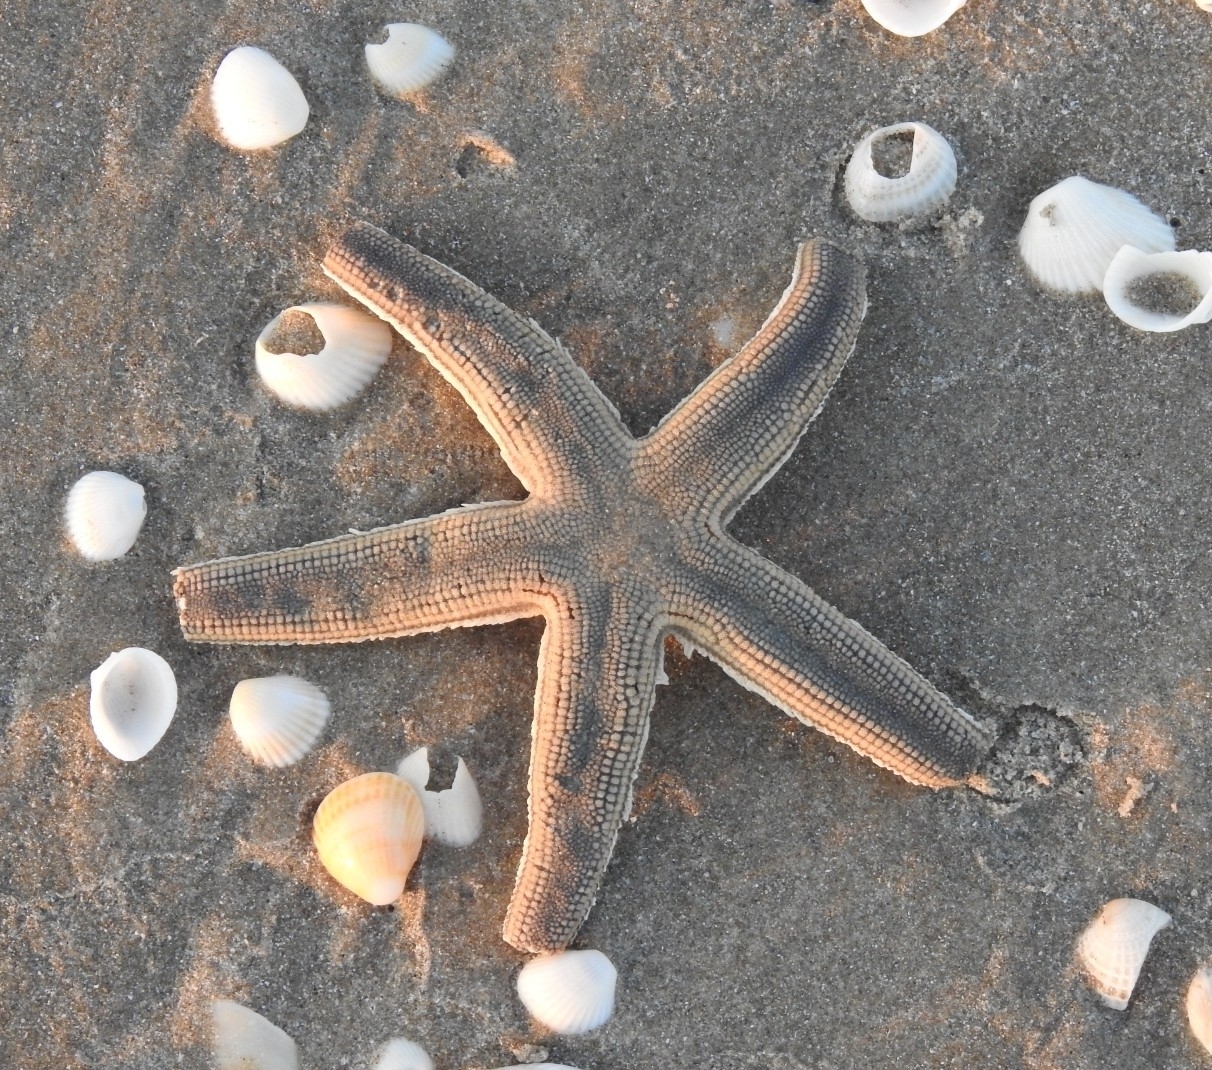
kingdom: Animalia
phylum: Echinodermata
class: Asteroidea
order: Paxillosida
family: Luidiidae
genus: Luidia
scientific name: Luidia clathrata
